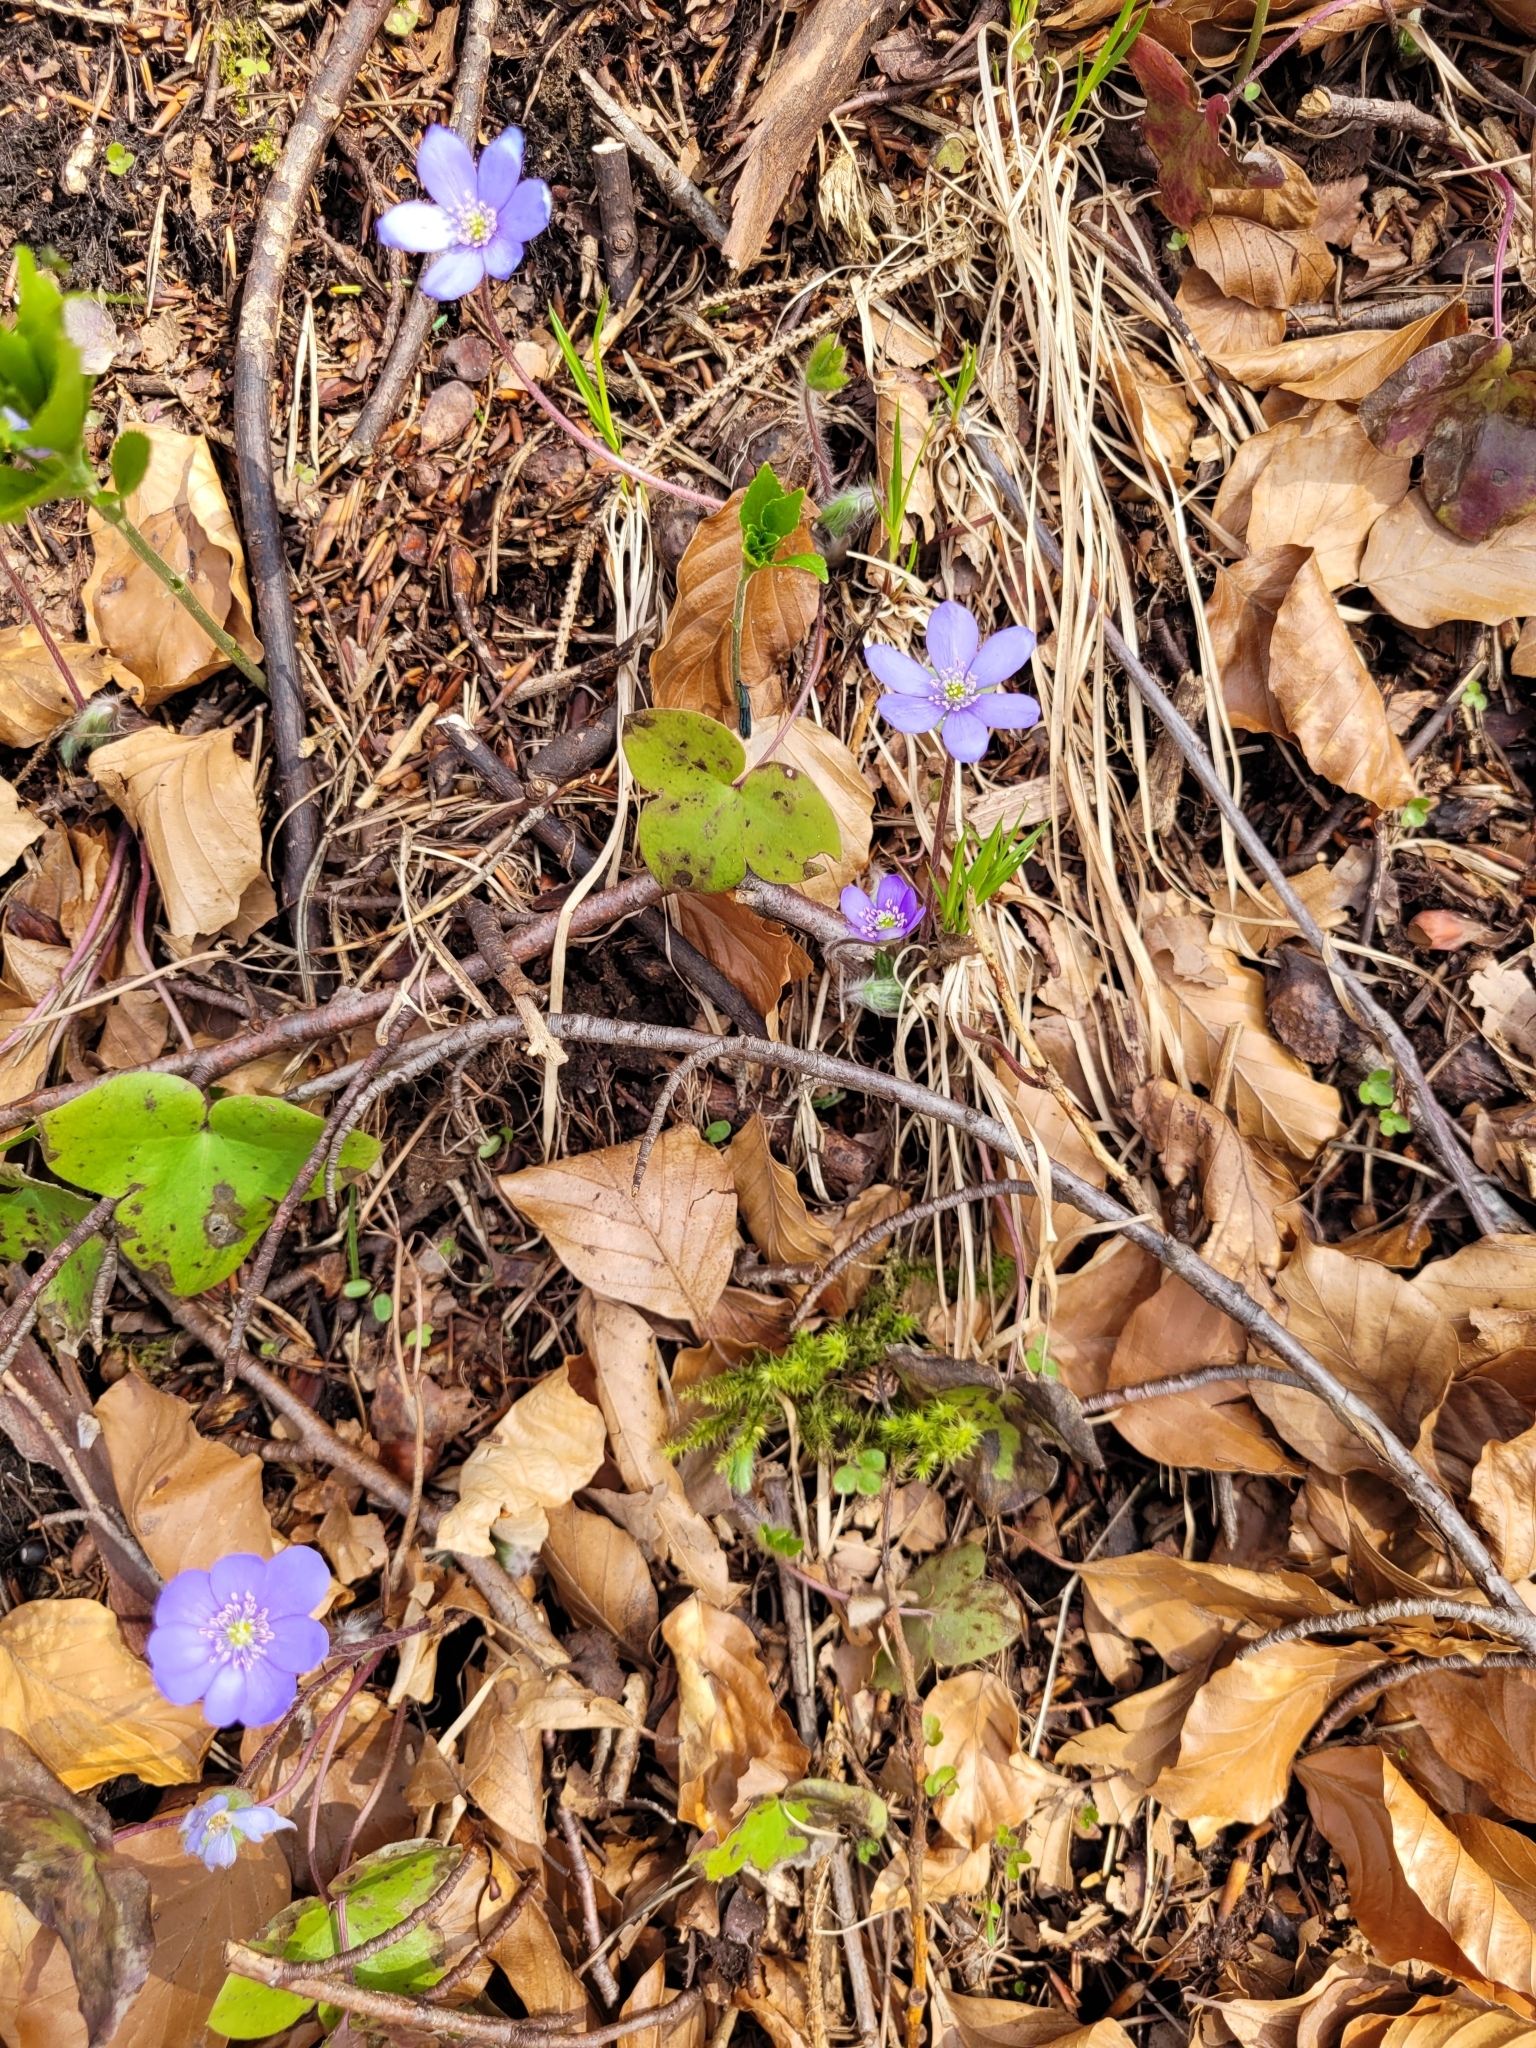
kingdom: Plantae
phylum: Tracheophyta
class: Magnoliopsida
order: Ranunculales
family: Ranunculaceae
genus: Hepatica
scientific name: Hepatica nobilis
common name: Liverleaf
